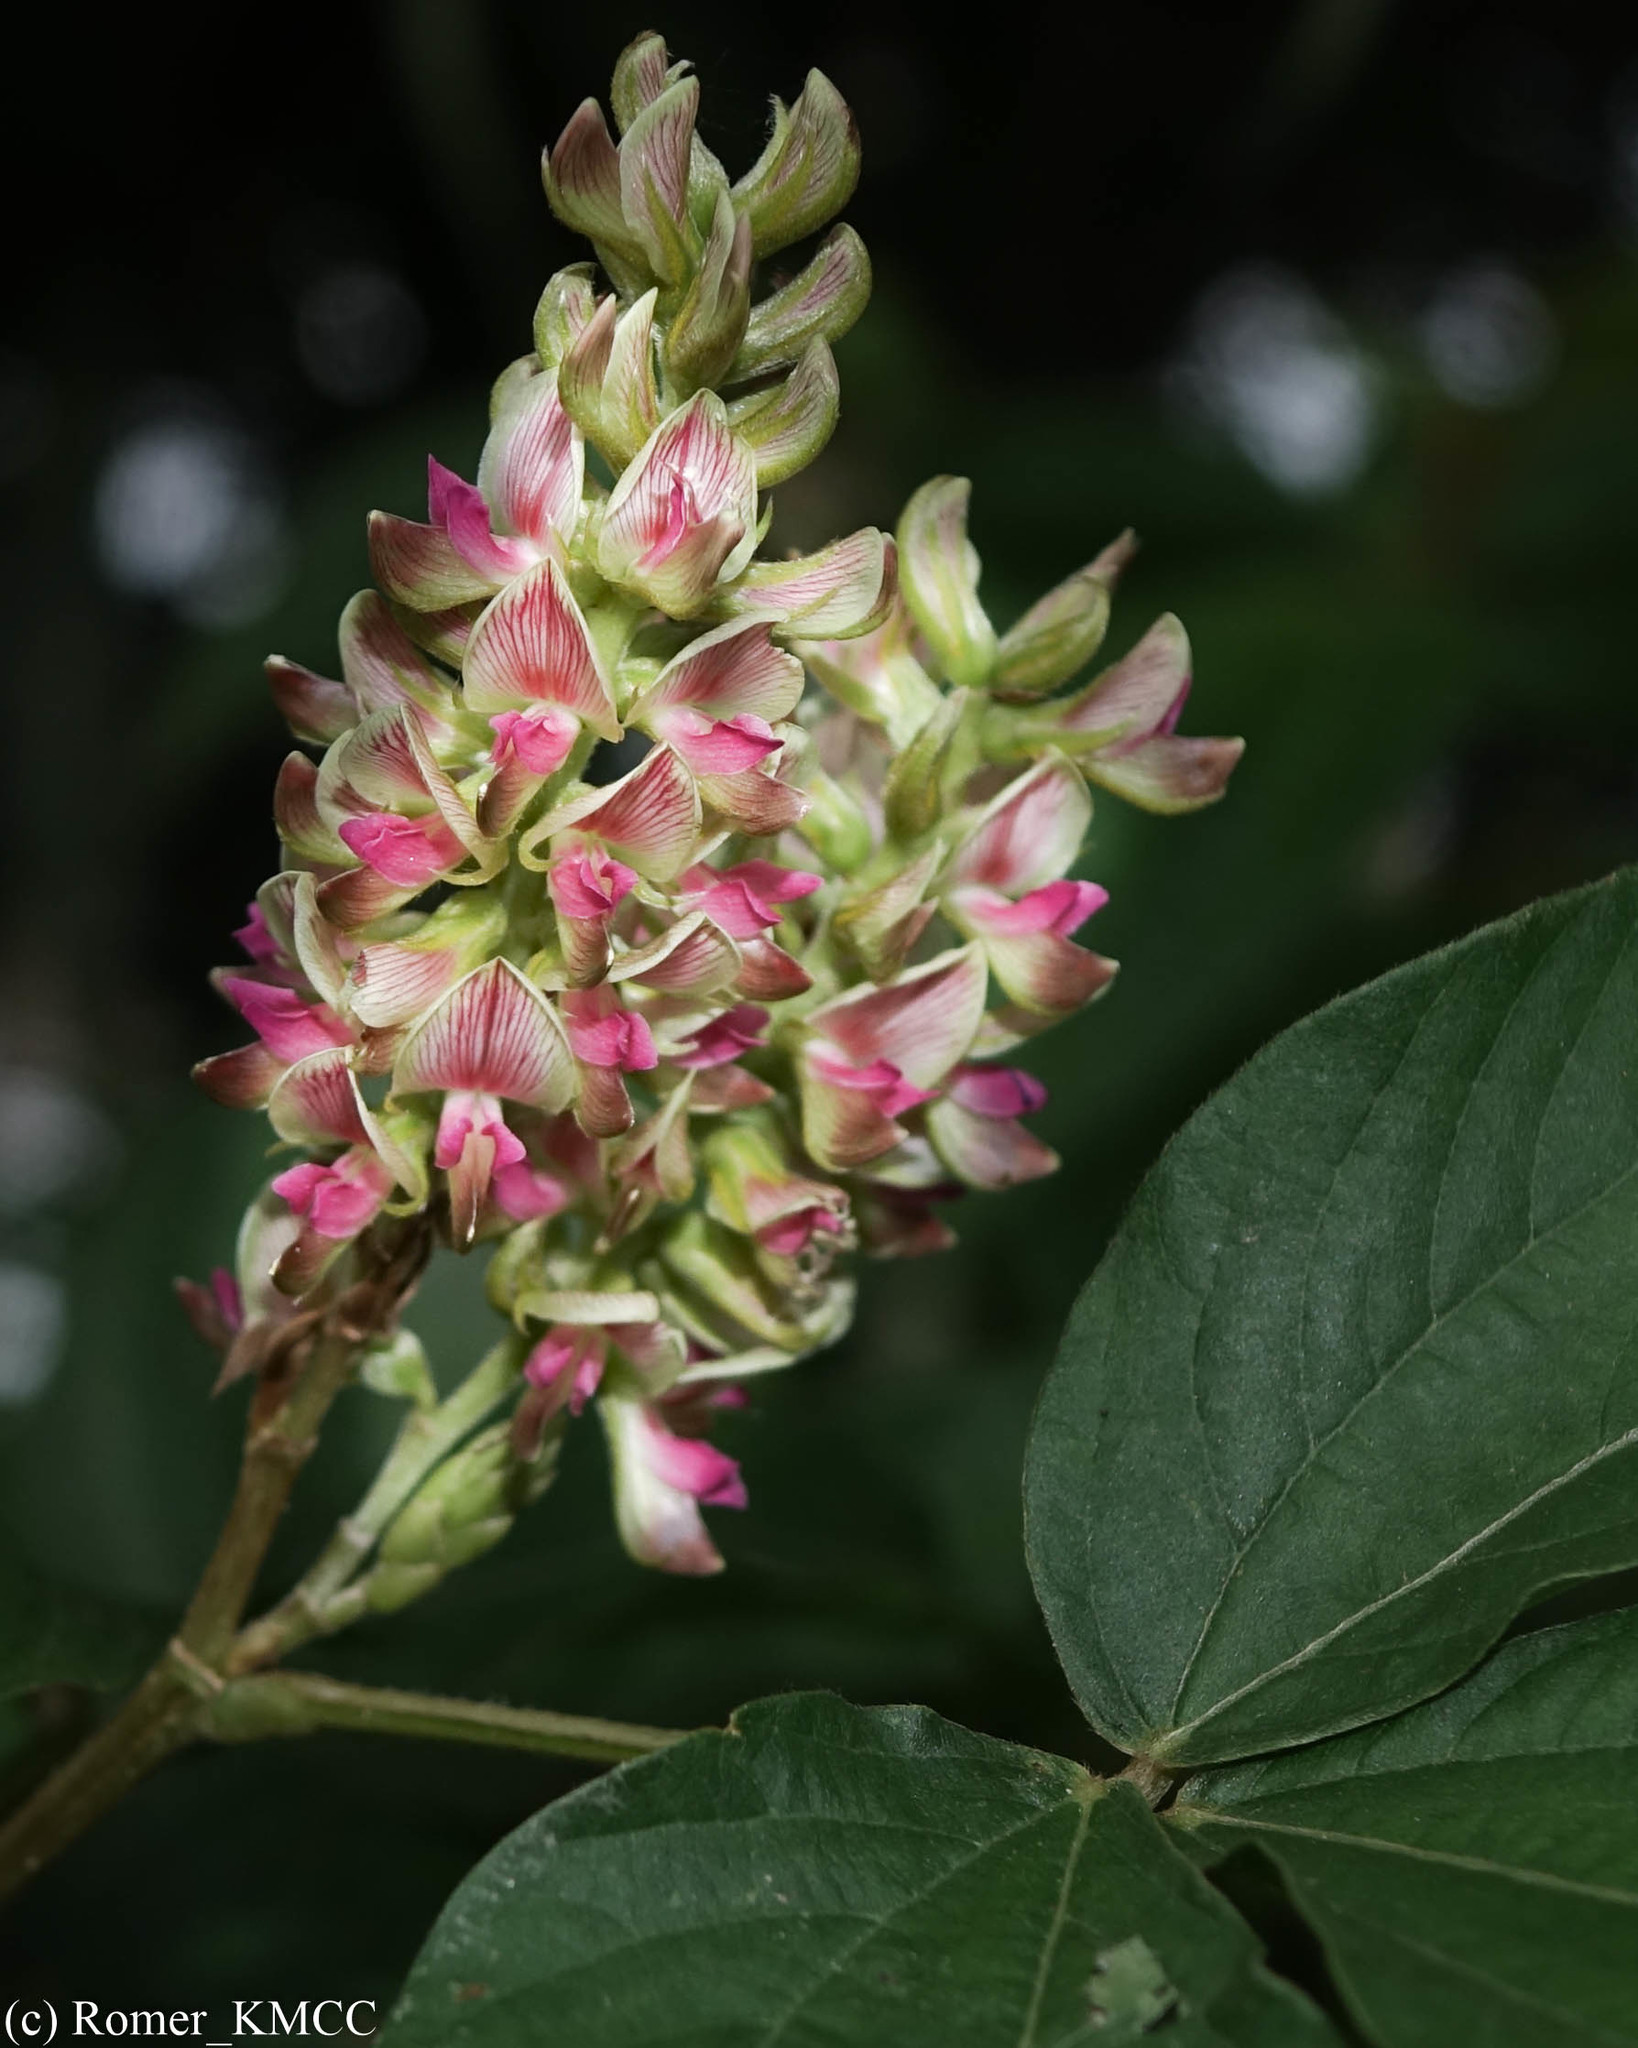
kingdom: Plantae
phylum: Tracheophyta
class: Magnoliopsida
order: Fabales
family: Fabaceae
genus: Flemingia
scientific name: Flemingia macrophylla
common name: Flemingia
